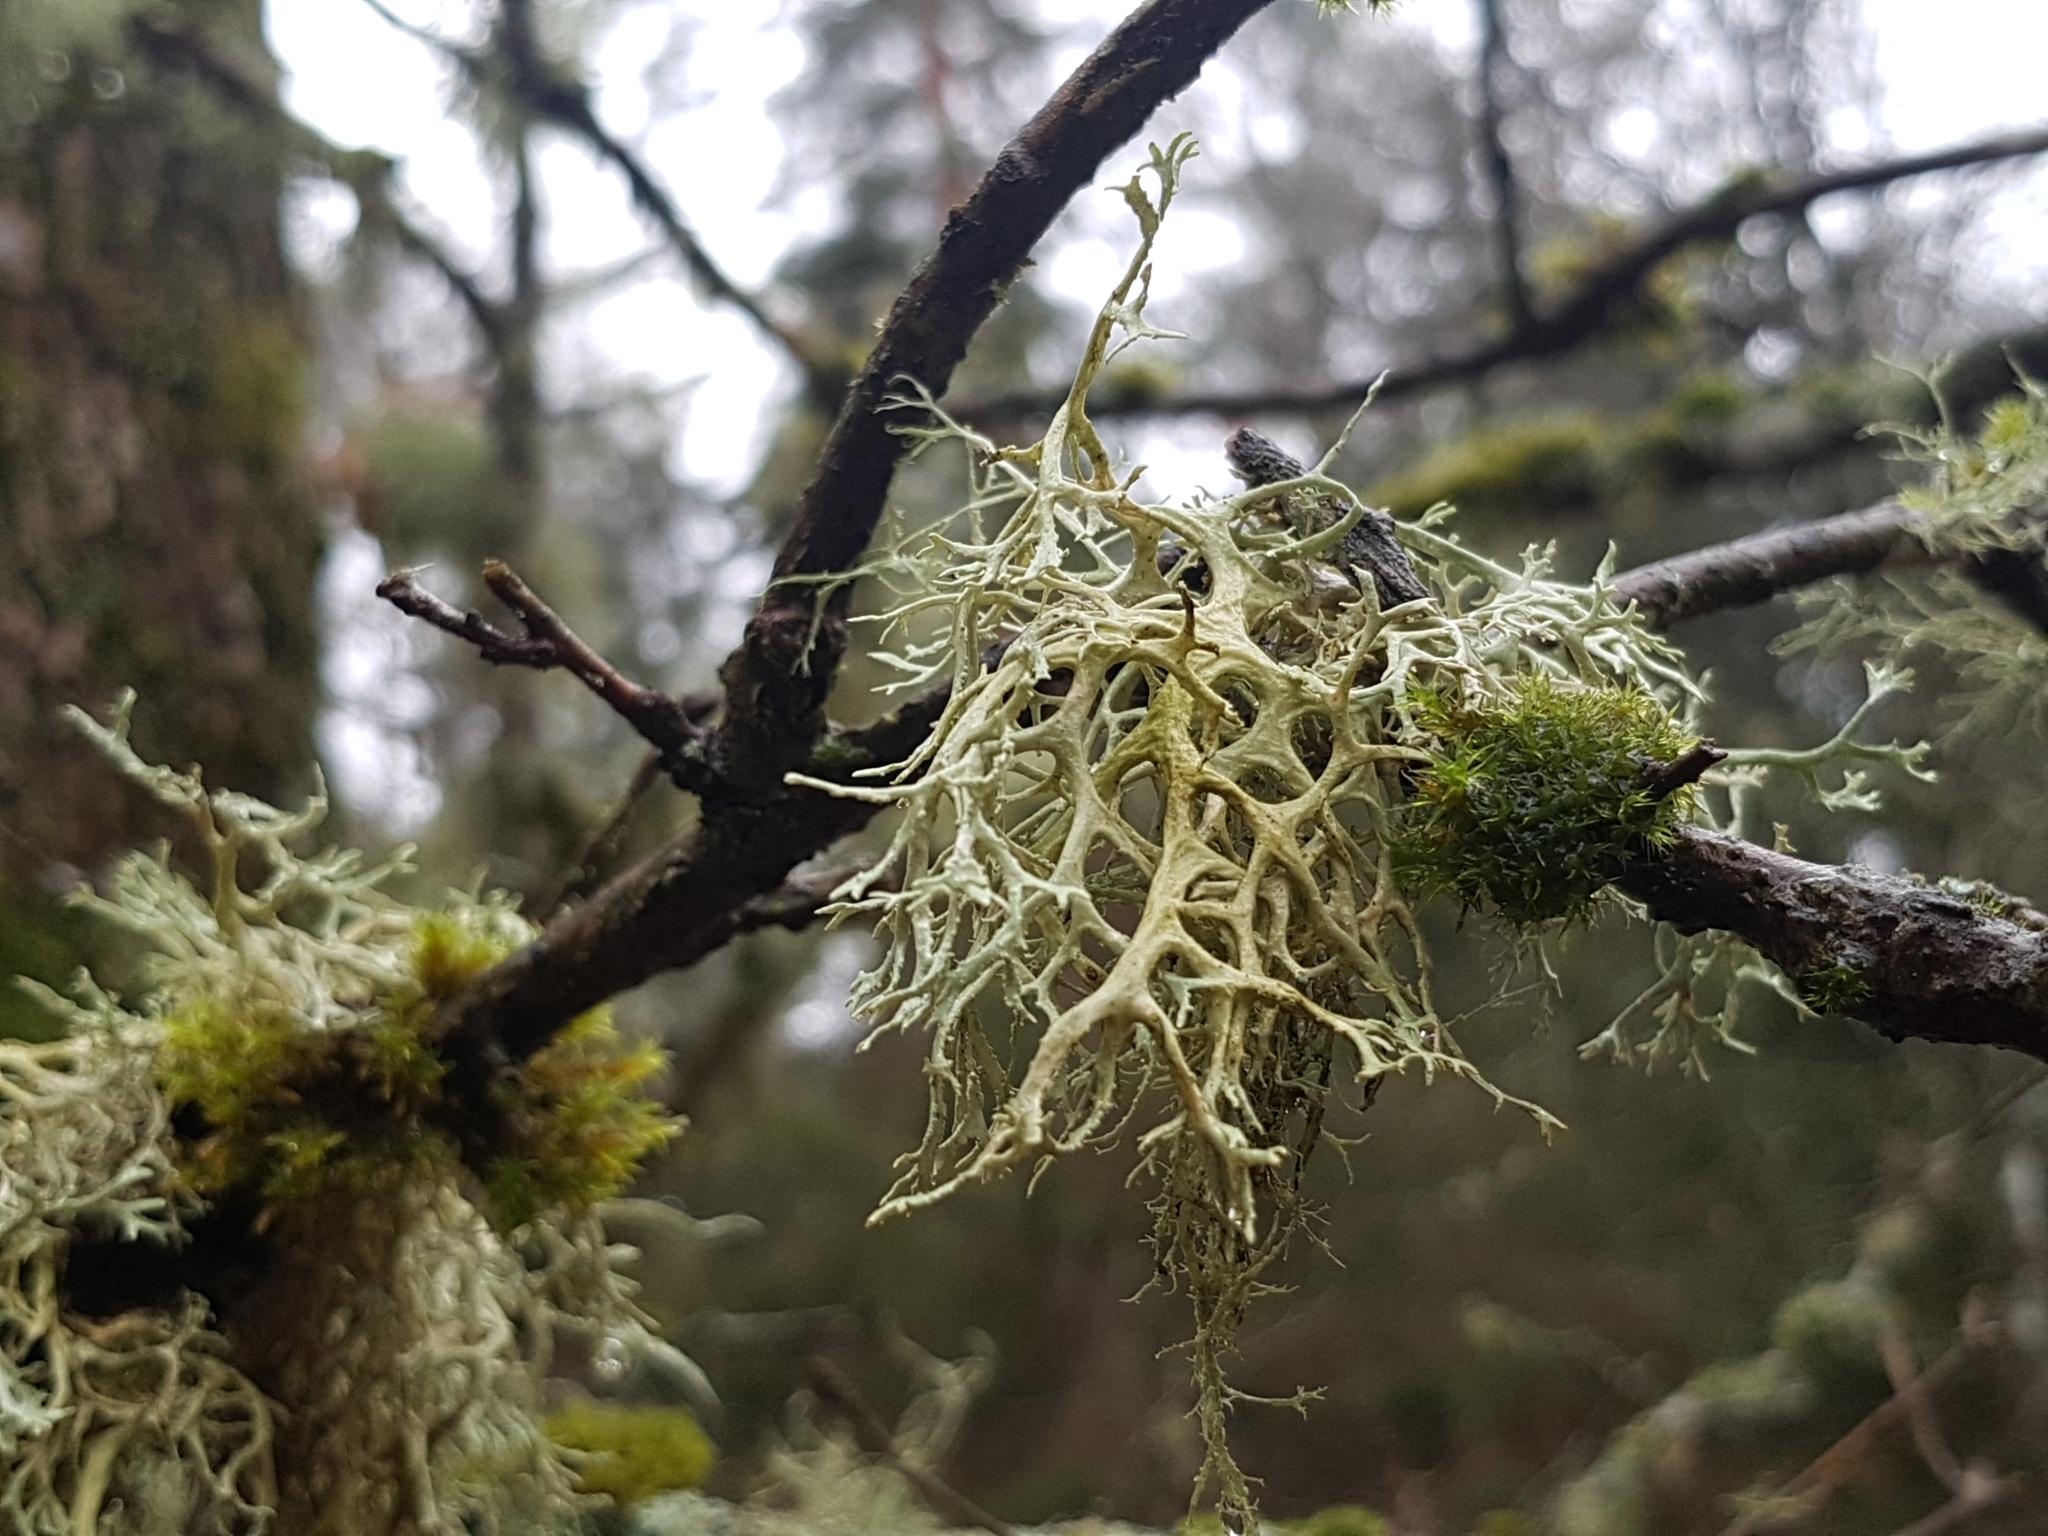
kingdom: Fungi
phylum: Ascomycota
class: Lecanoromycetes
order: Lecanorales
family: Parmeliaceae
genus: Evernia
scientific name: Evernia prunastri
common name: Oak moss
